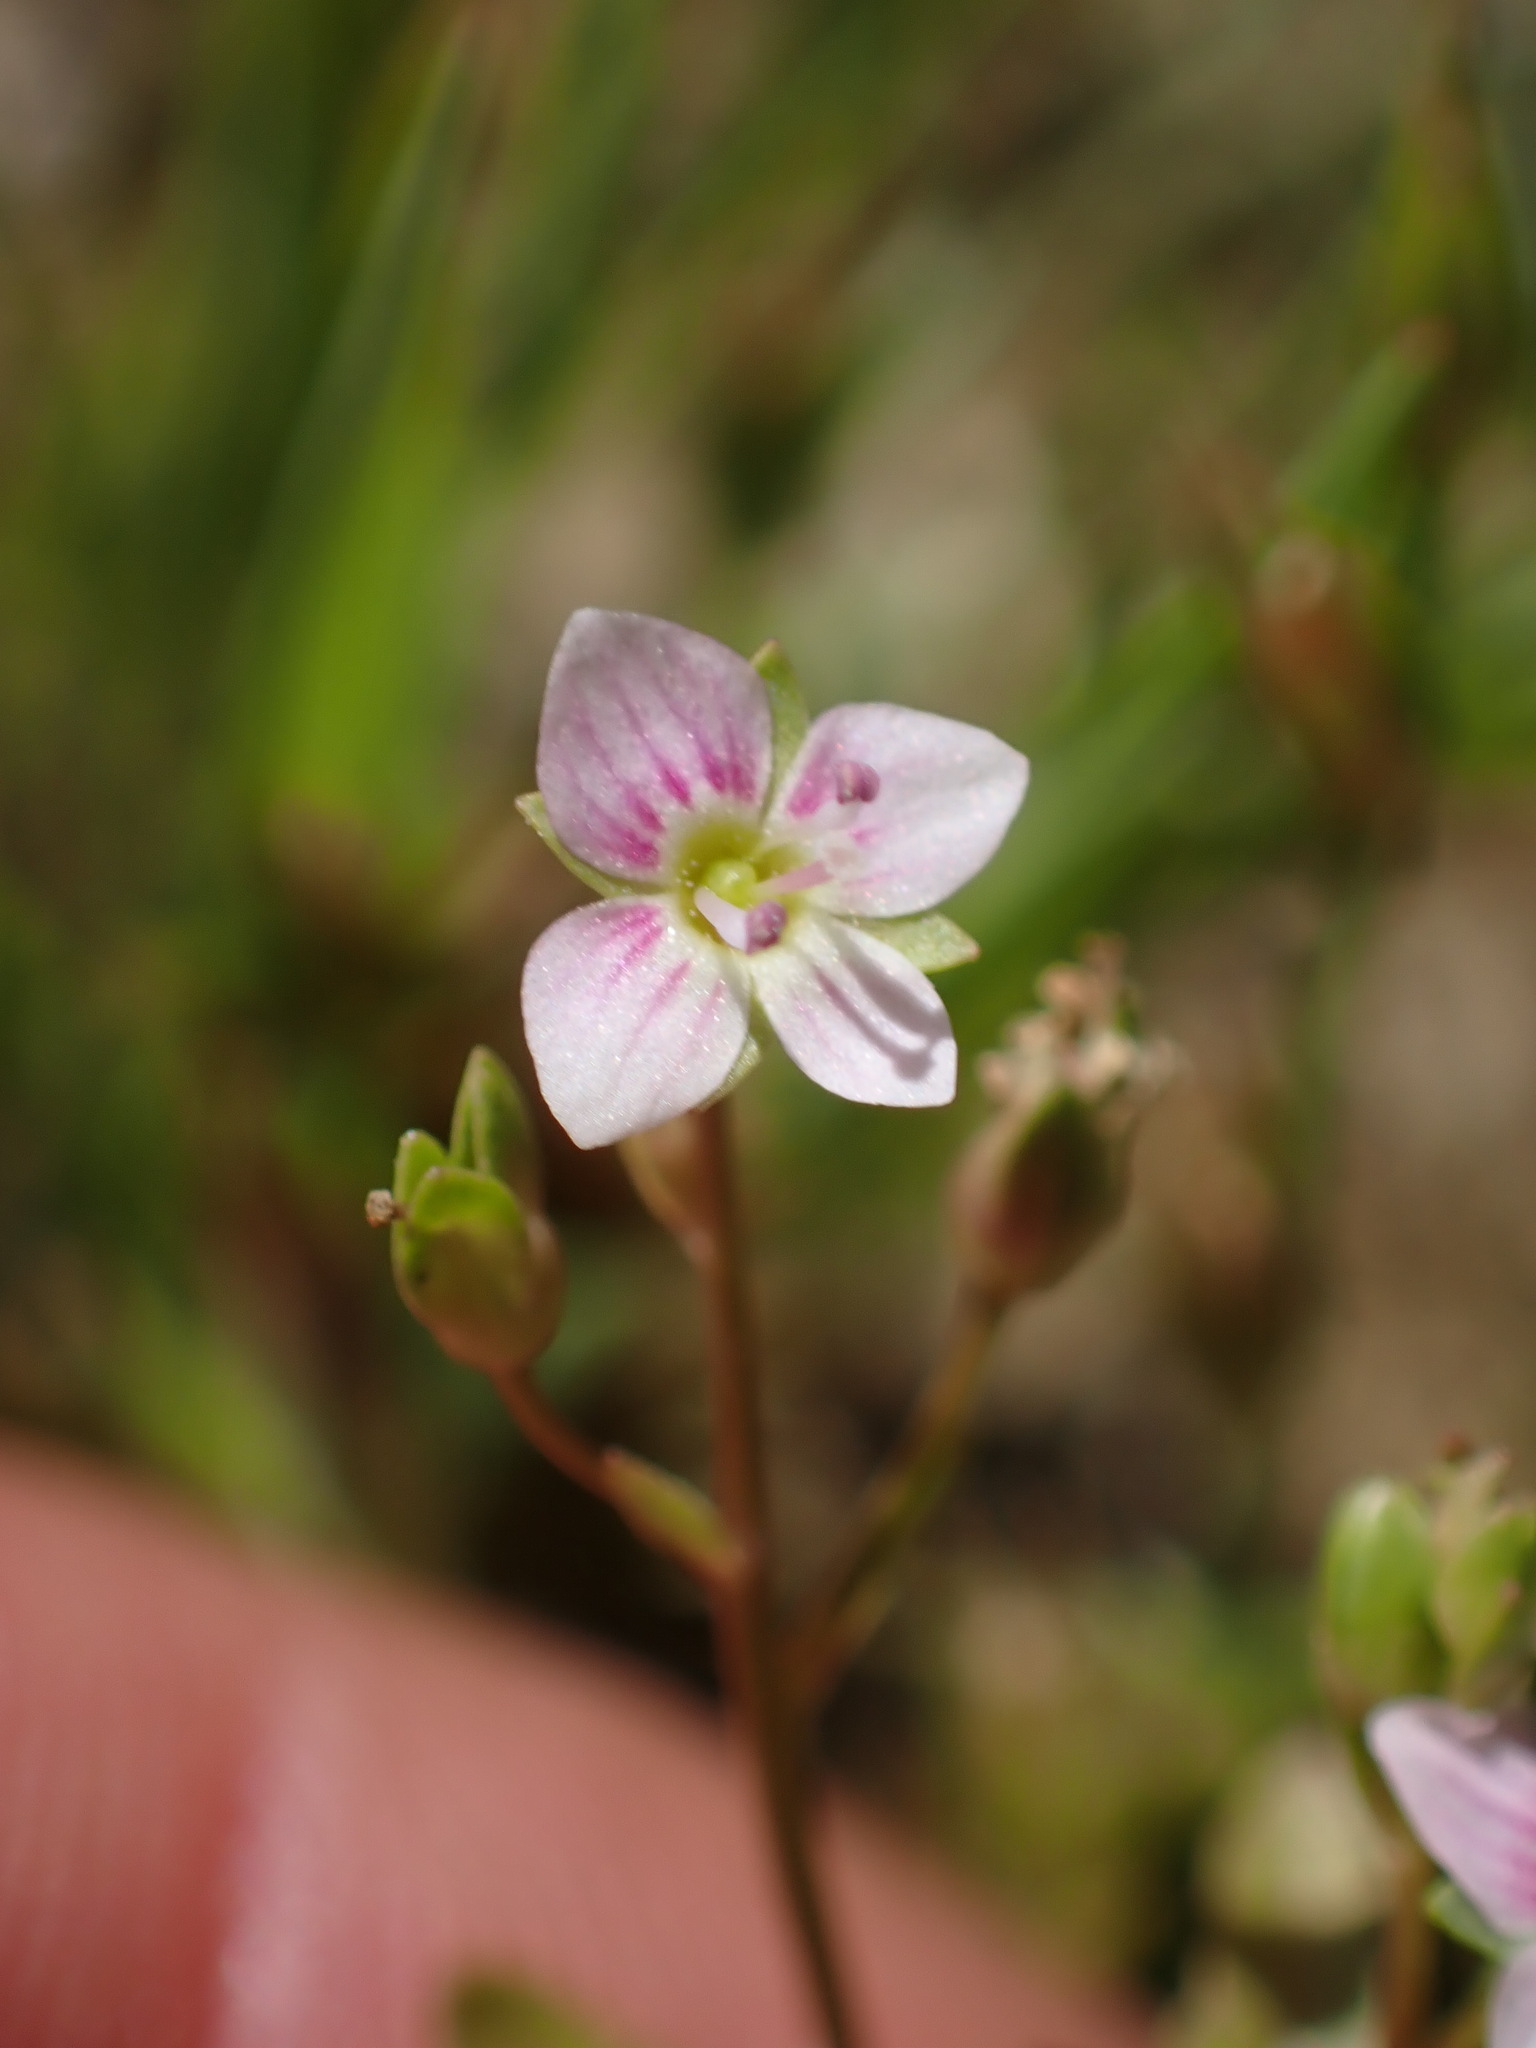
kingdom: Plantae
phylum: Tracheophyta
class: Magnoliopsida
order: Lamiales
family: Plantaginaceae
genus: Veronica
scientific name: Veronica catenata
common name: Pink water-speedwell
